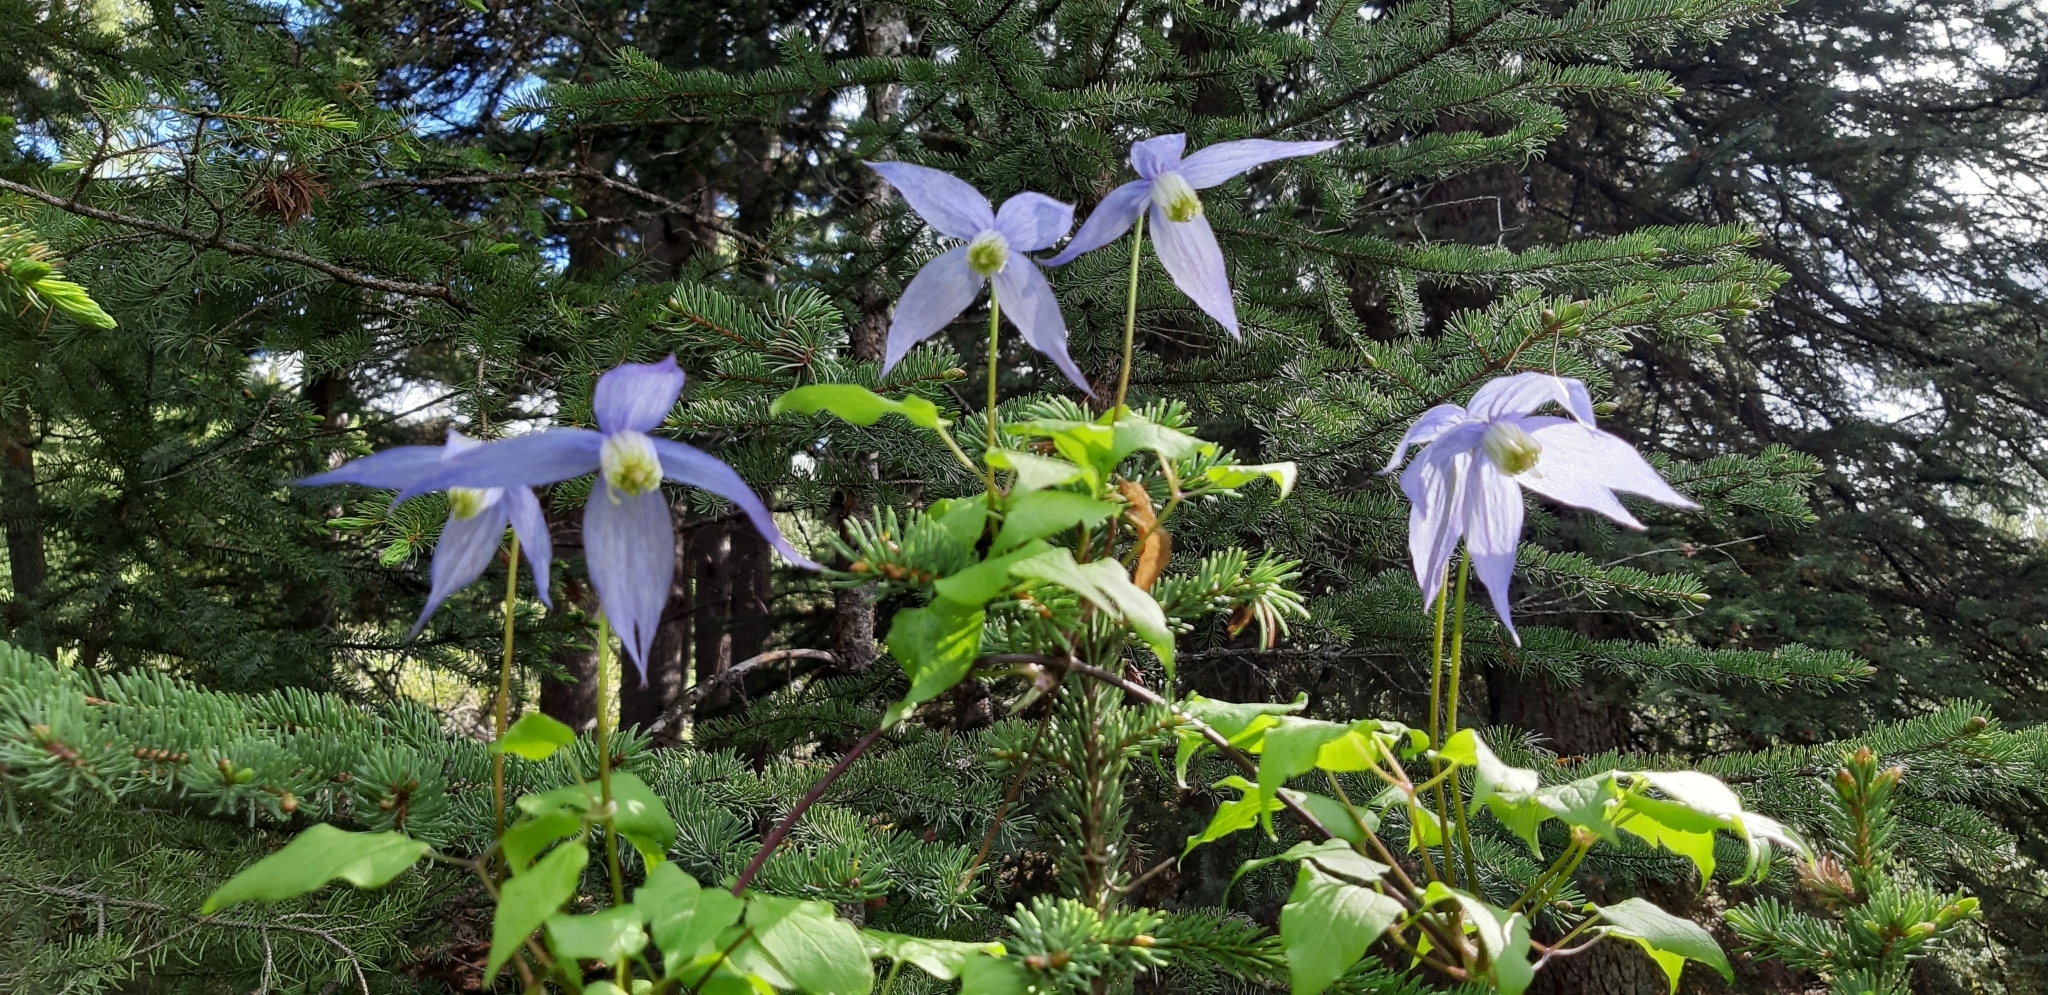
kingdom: Plantae
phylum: Tracheophyta
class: Magnoliopsida
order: Ranunculales
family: Ranunculaceae
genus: Clematis
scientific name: Clematis occidentalis
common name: Purple clematis
